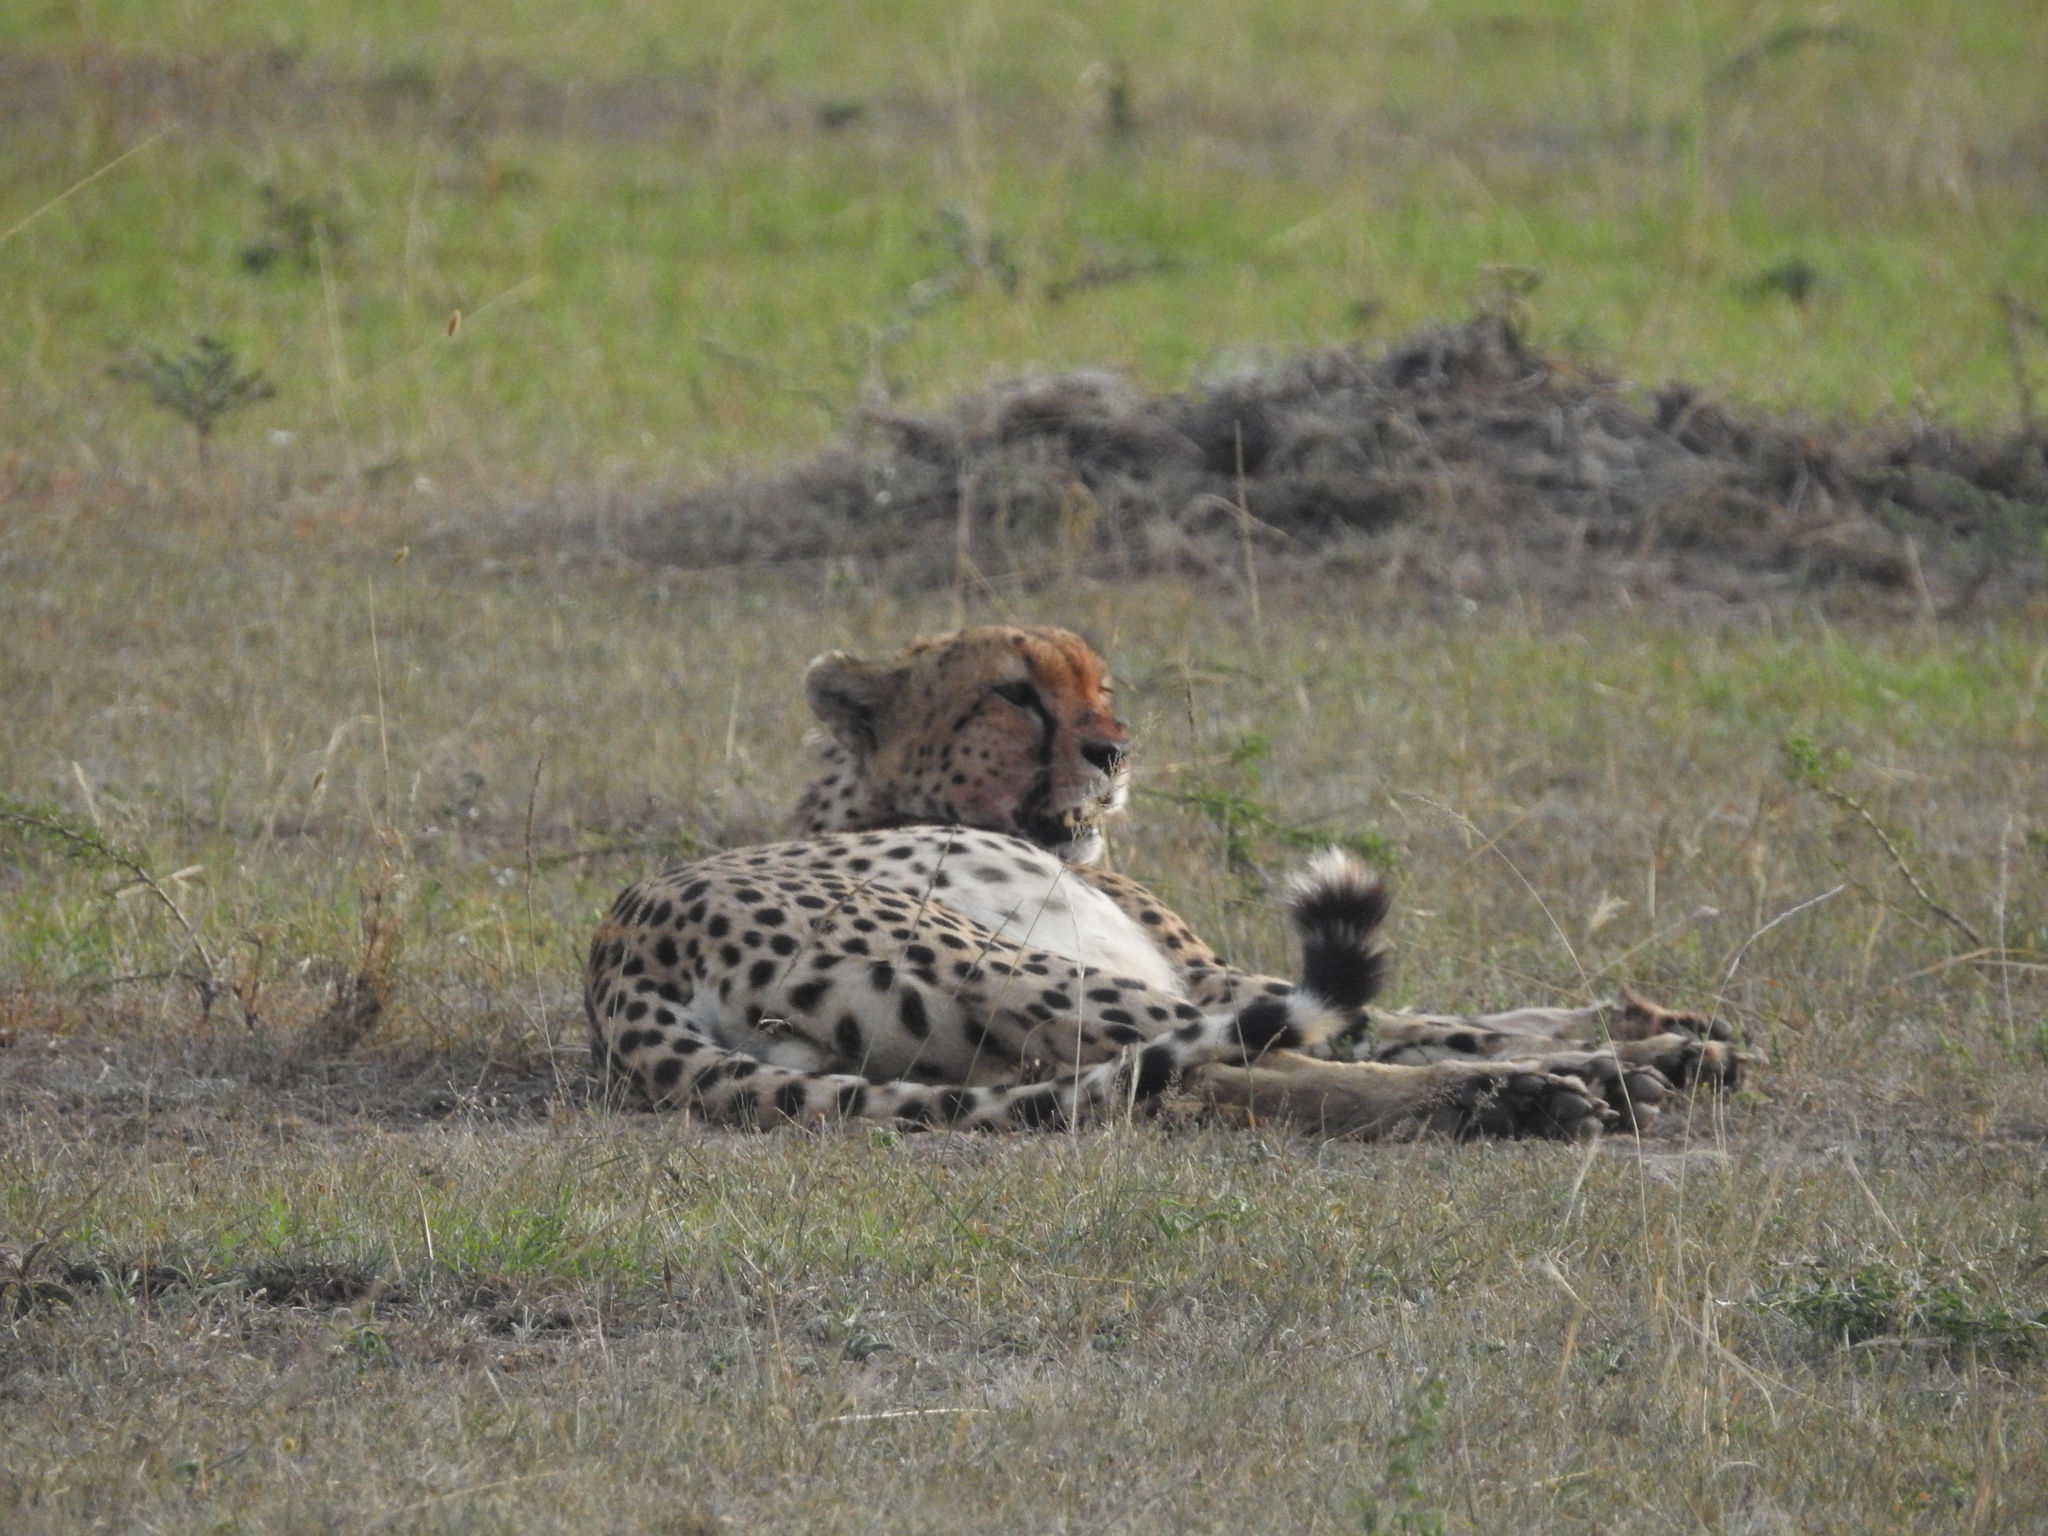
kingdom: Animalia
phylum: Chordata
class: Mammalia
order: Carnivora
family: Felidae
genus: Acinonyx
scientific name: Acinonyx jubatus
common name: Cheetah
